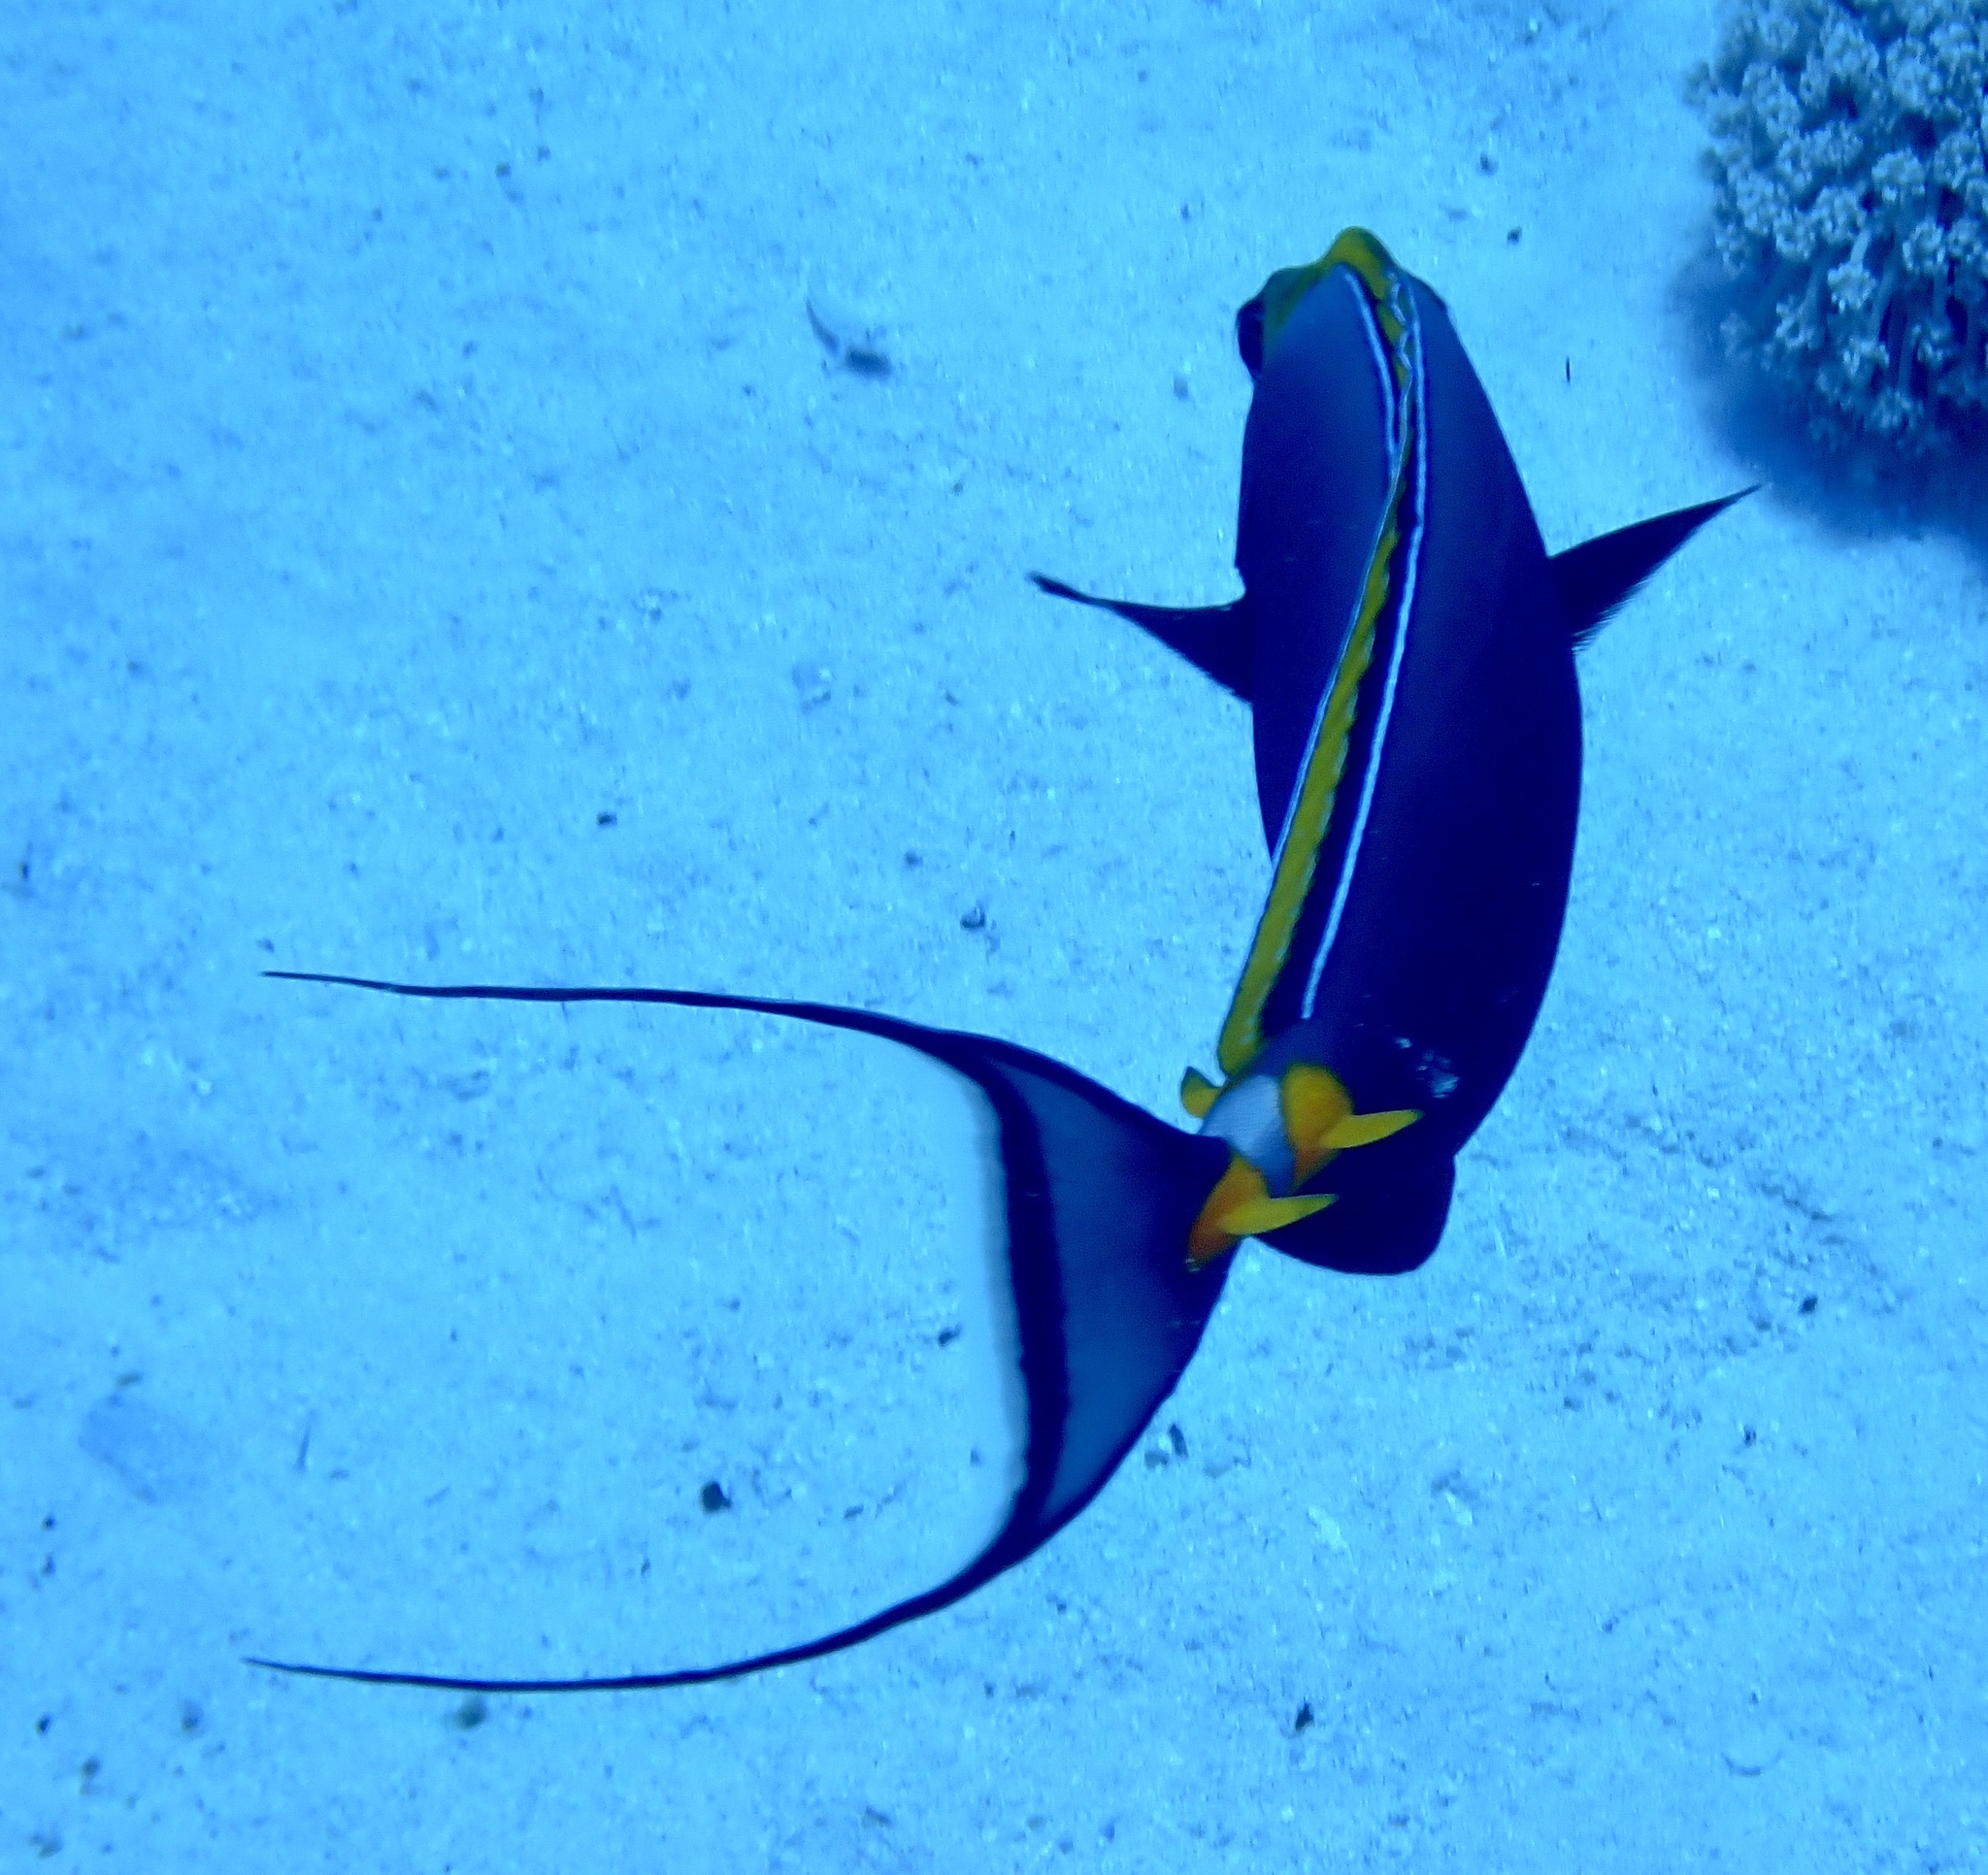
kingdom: Animalia
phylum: Chordata
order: Perciformes
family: Acanthuridae
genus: Naso
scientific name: Naso elegans
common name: Orangespine unicornfish
